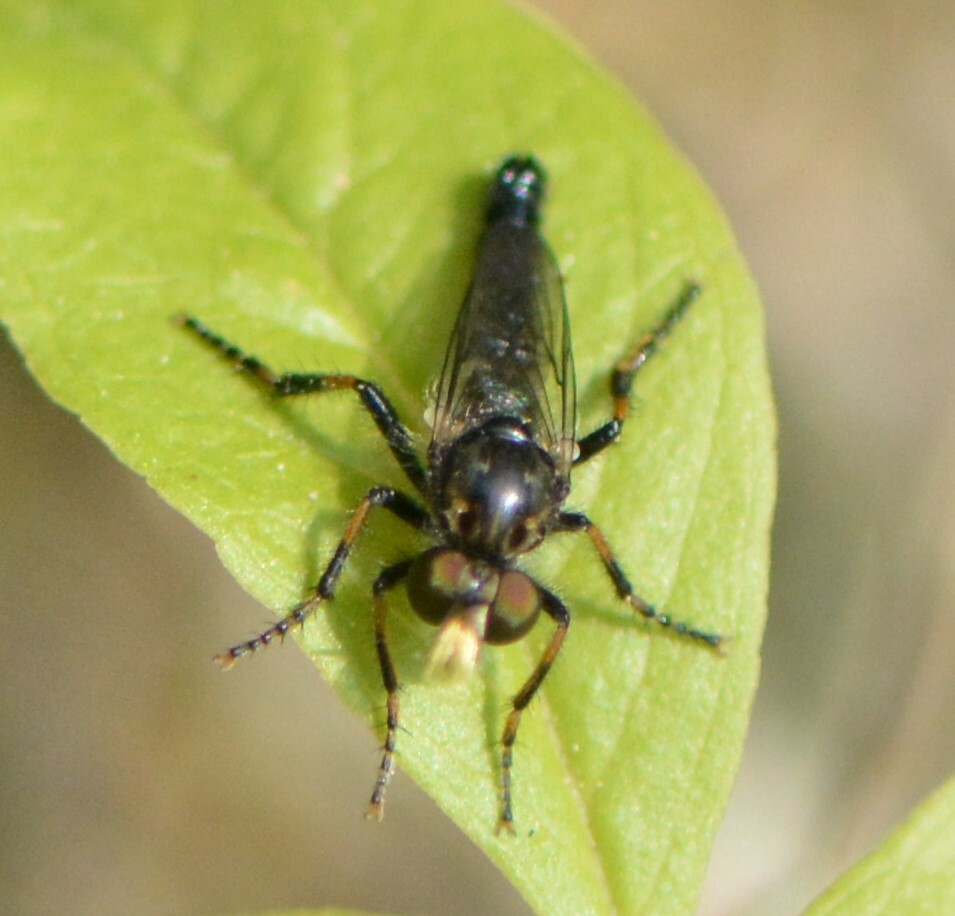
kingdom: Animalia
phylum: Arthropoda
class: Insecta
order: Diptera
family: Asilidae
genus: Cyrtopogon
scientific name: Cyrtopogon falto
